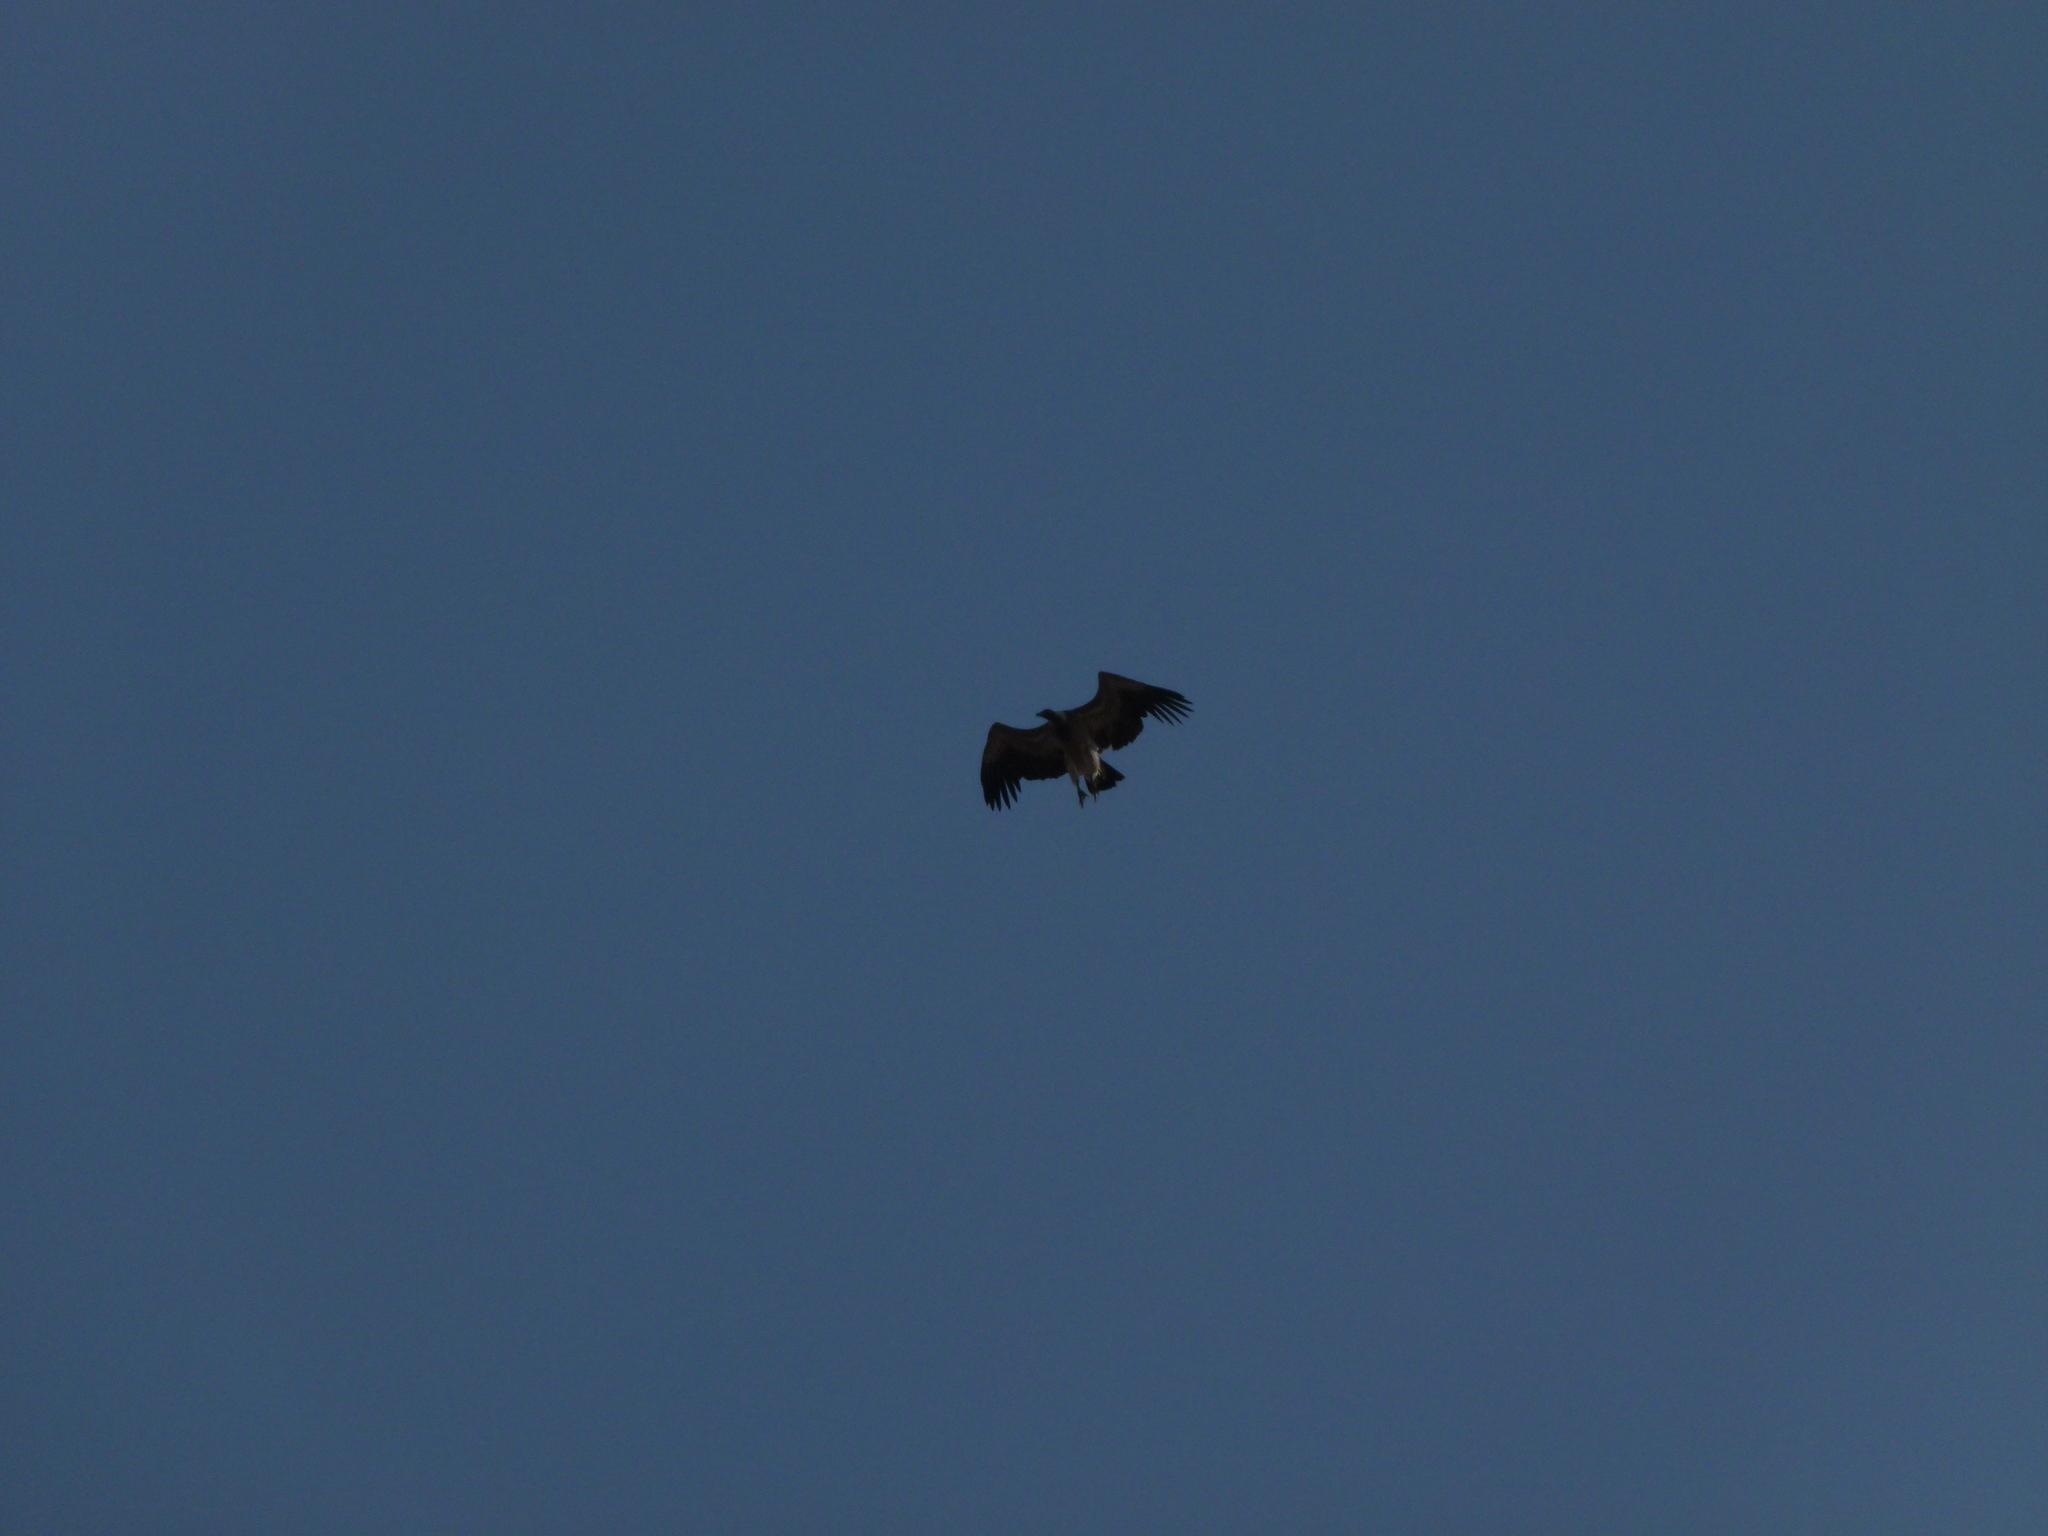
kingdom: Animalia
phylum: Chordata
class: Aves
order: Accipitriformes
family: Accipitridae
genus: Gyps
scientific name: Gyps indicus
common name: Indian vulture
